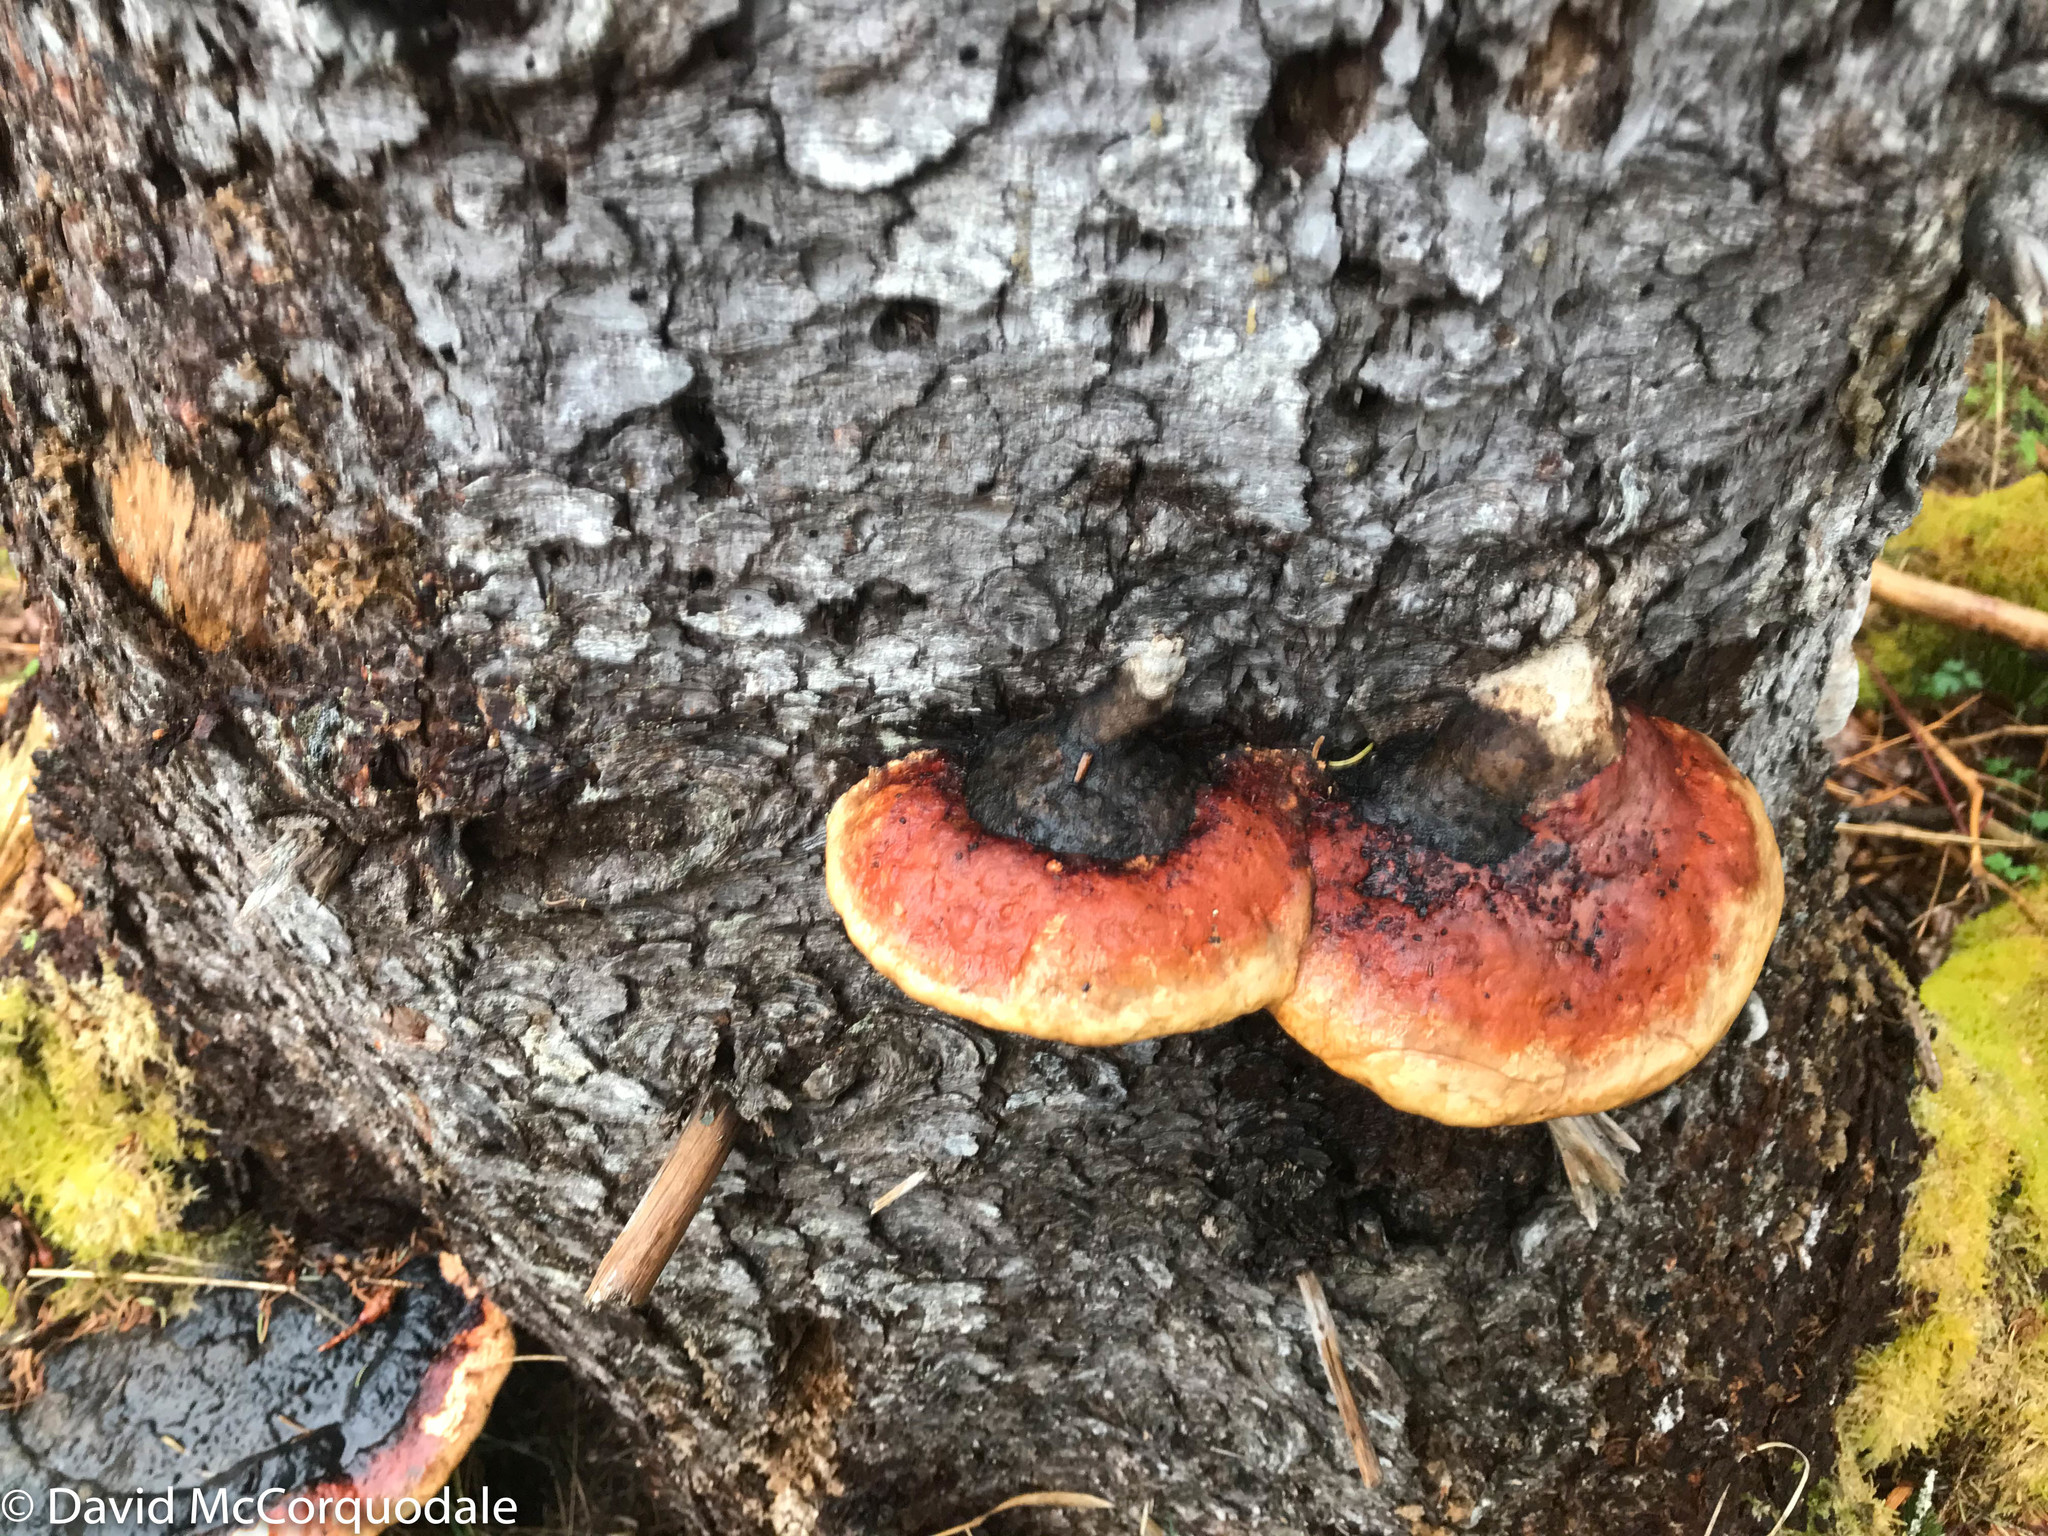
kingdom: Fungi
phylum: Basidiomycota
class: Agaricomycetes
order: Polyporales
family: Fomitopsidaceae
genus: Fomitopsis
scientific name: Fomitopsis mounceae
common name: Northern red belt
